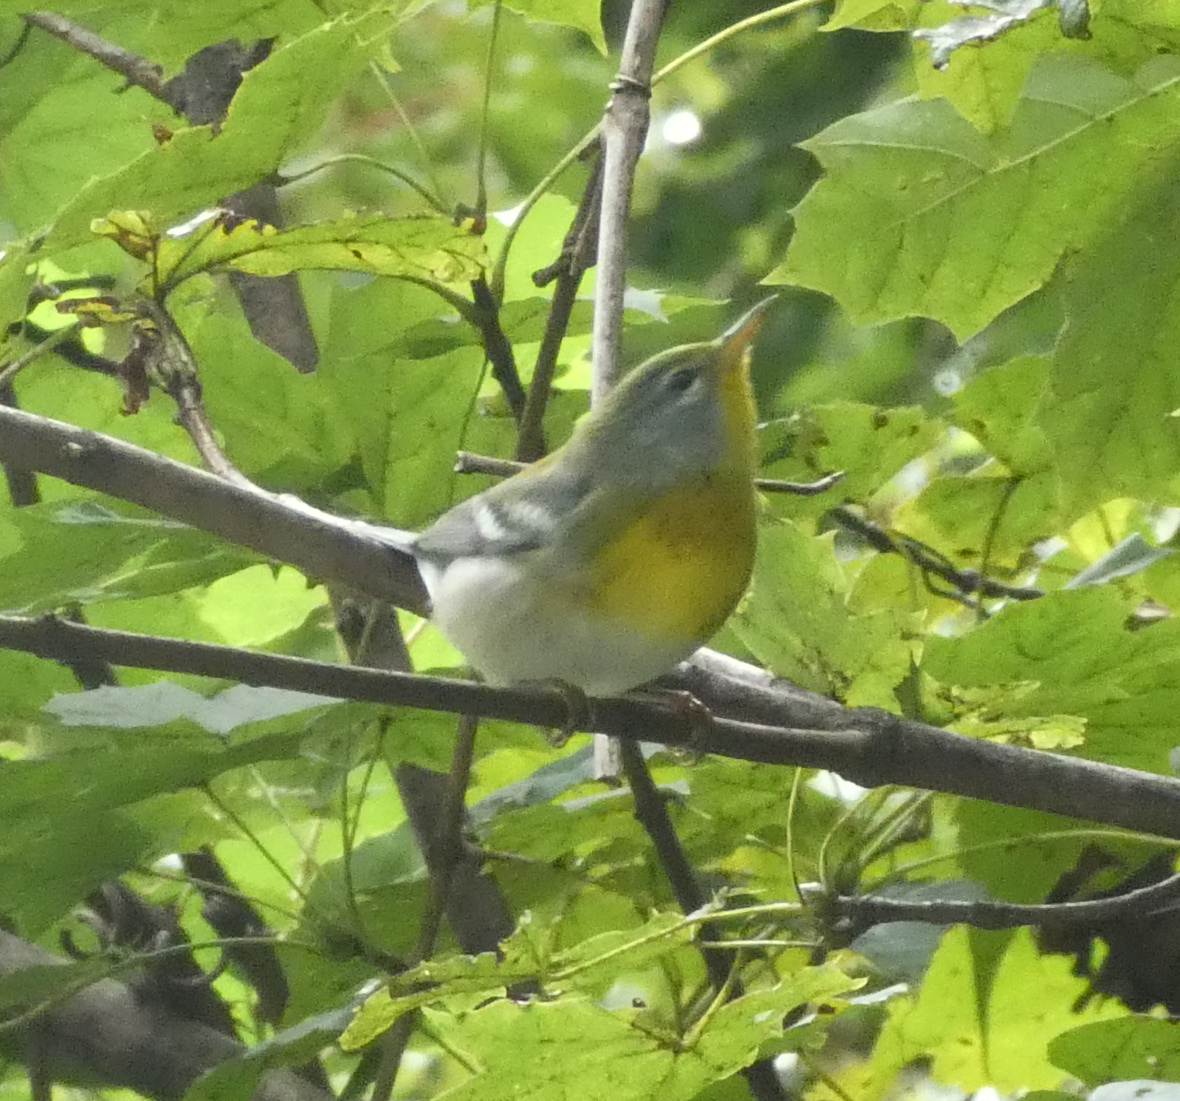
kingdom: Animalia
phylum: Chordata
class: Aves
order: Passeriformes
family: Parulidae
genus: Setophaga
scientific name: Setophaga americana
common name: Northern parula
